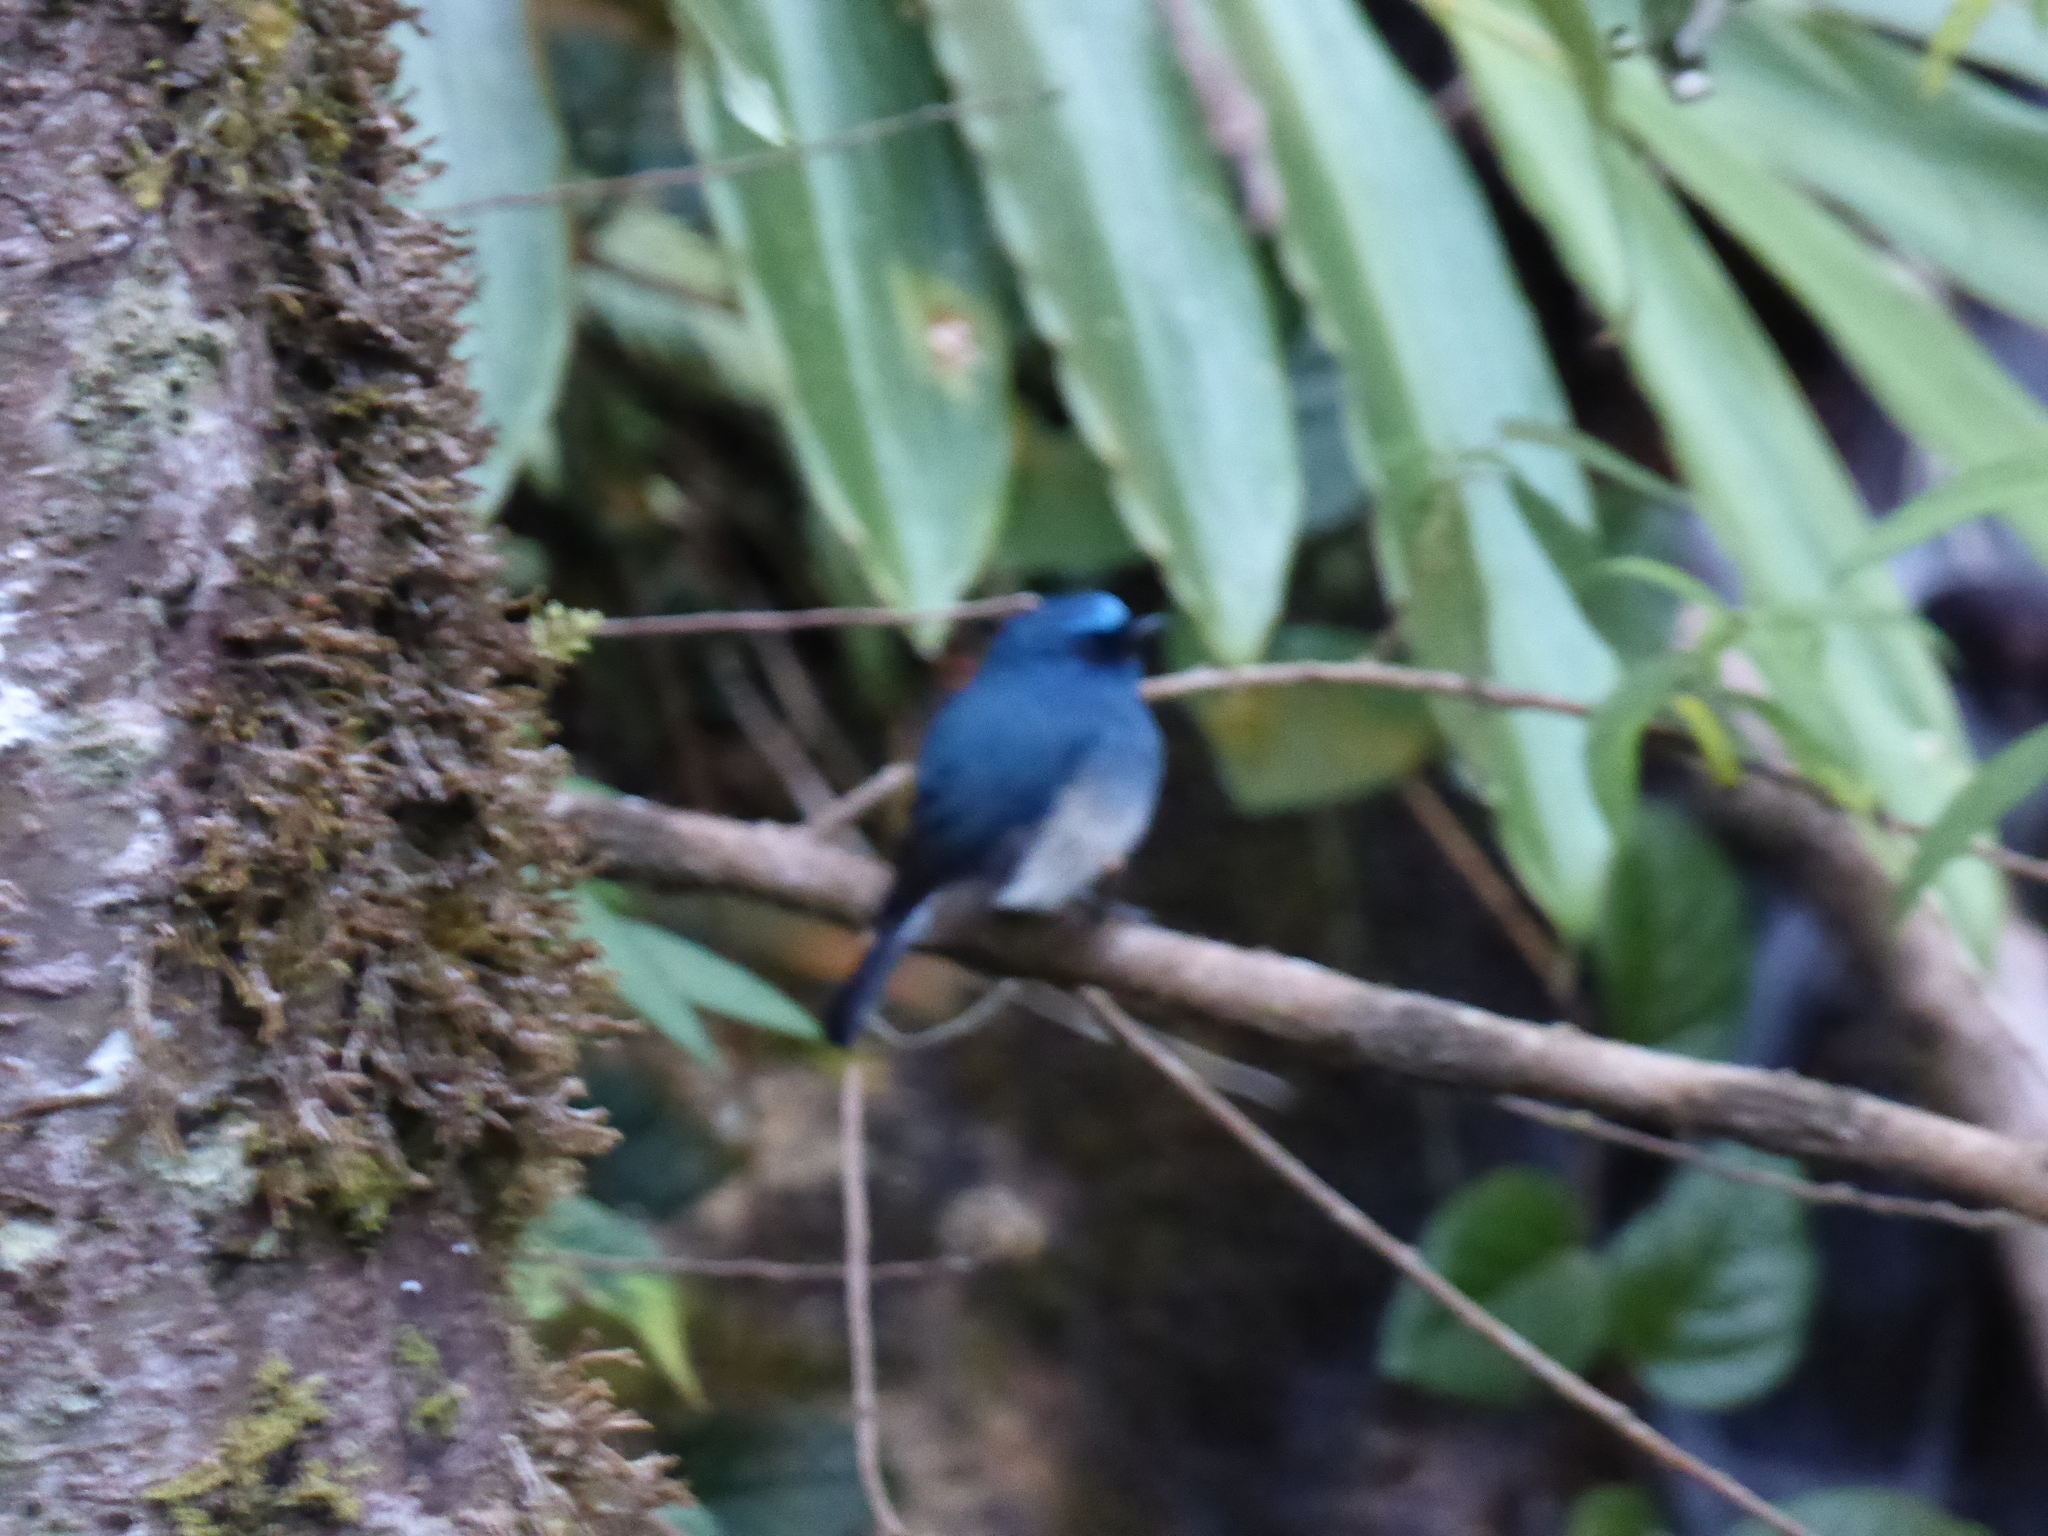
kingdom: Animalia
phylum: Chordata
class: Aves
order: Passeriformes
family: Muscicapidae
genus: Eumyias
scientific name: Eumyias indigo
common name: Indigo flycatcher
